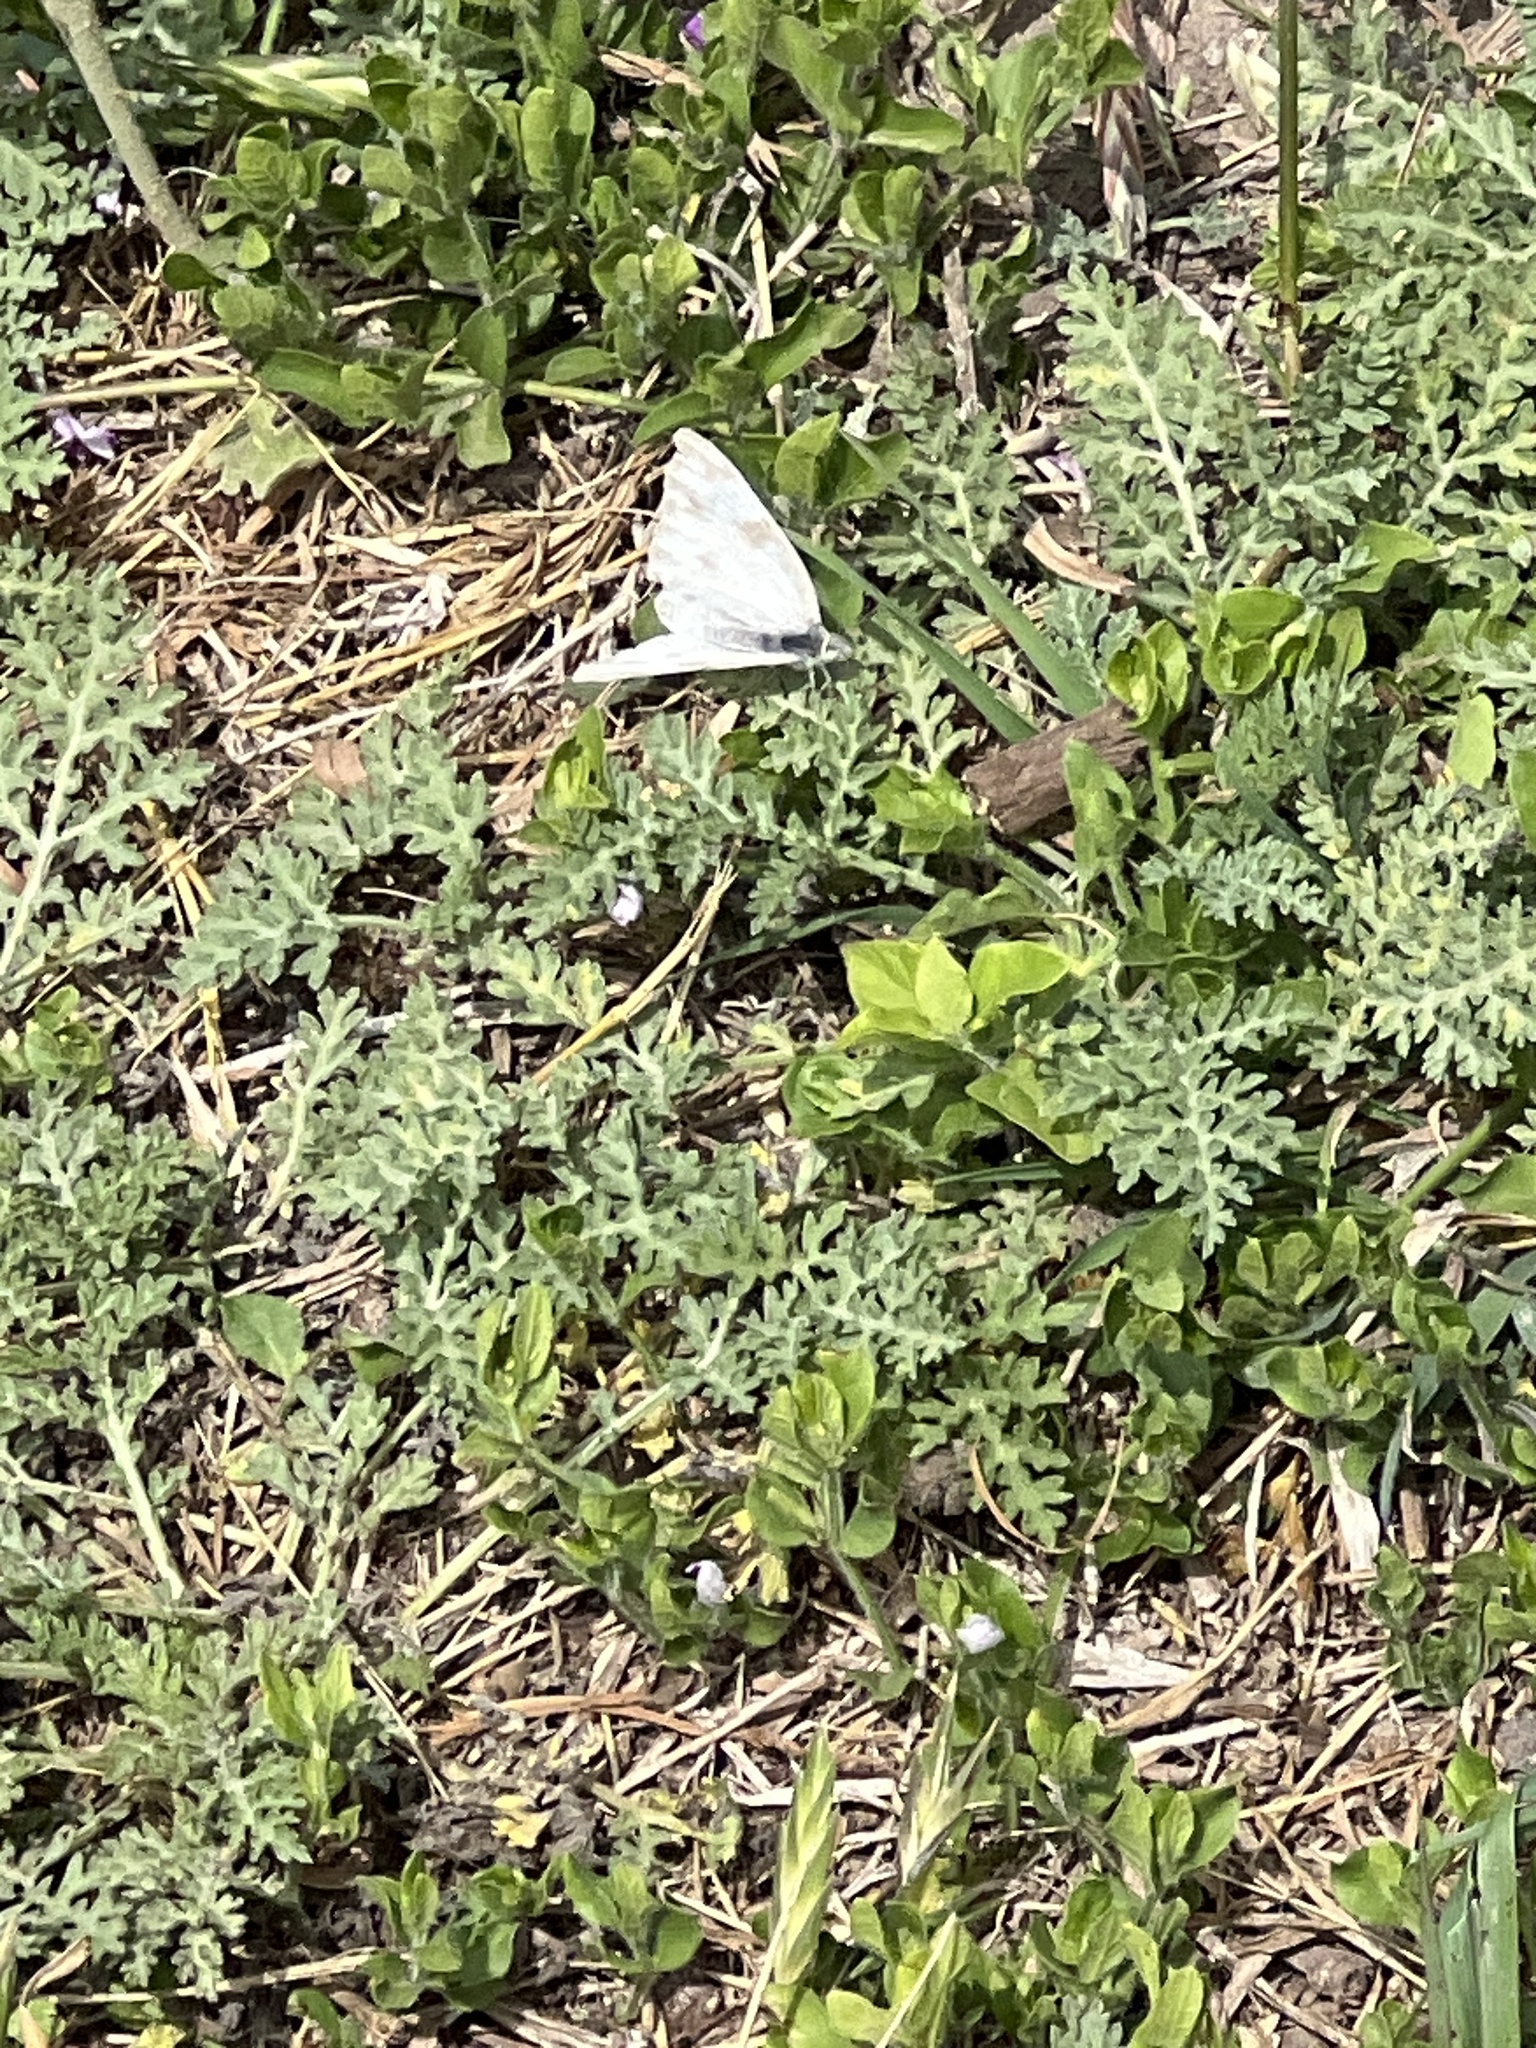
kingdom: Animalia
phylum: Arthropoda
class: Insecta
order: Lepidoptera
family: Pieridae
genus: Pontia
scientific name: Pontia protodice
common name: Checkered white
